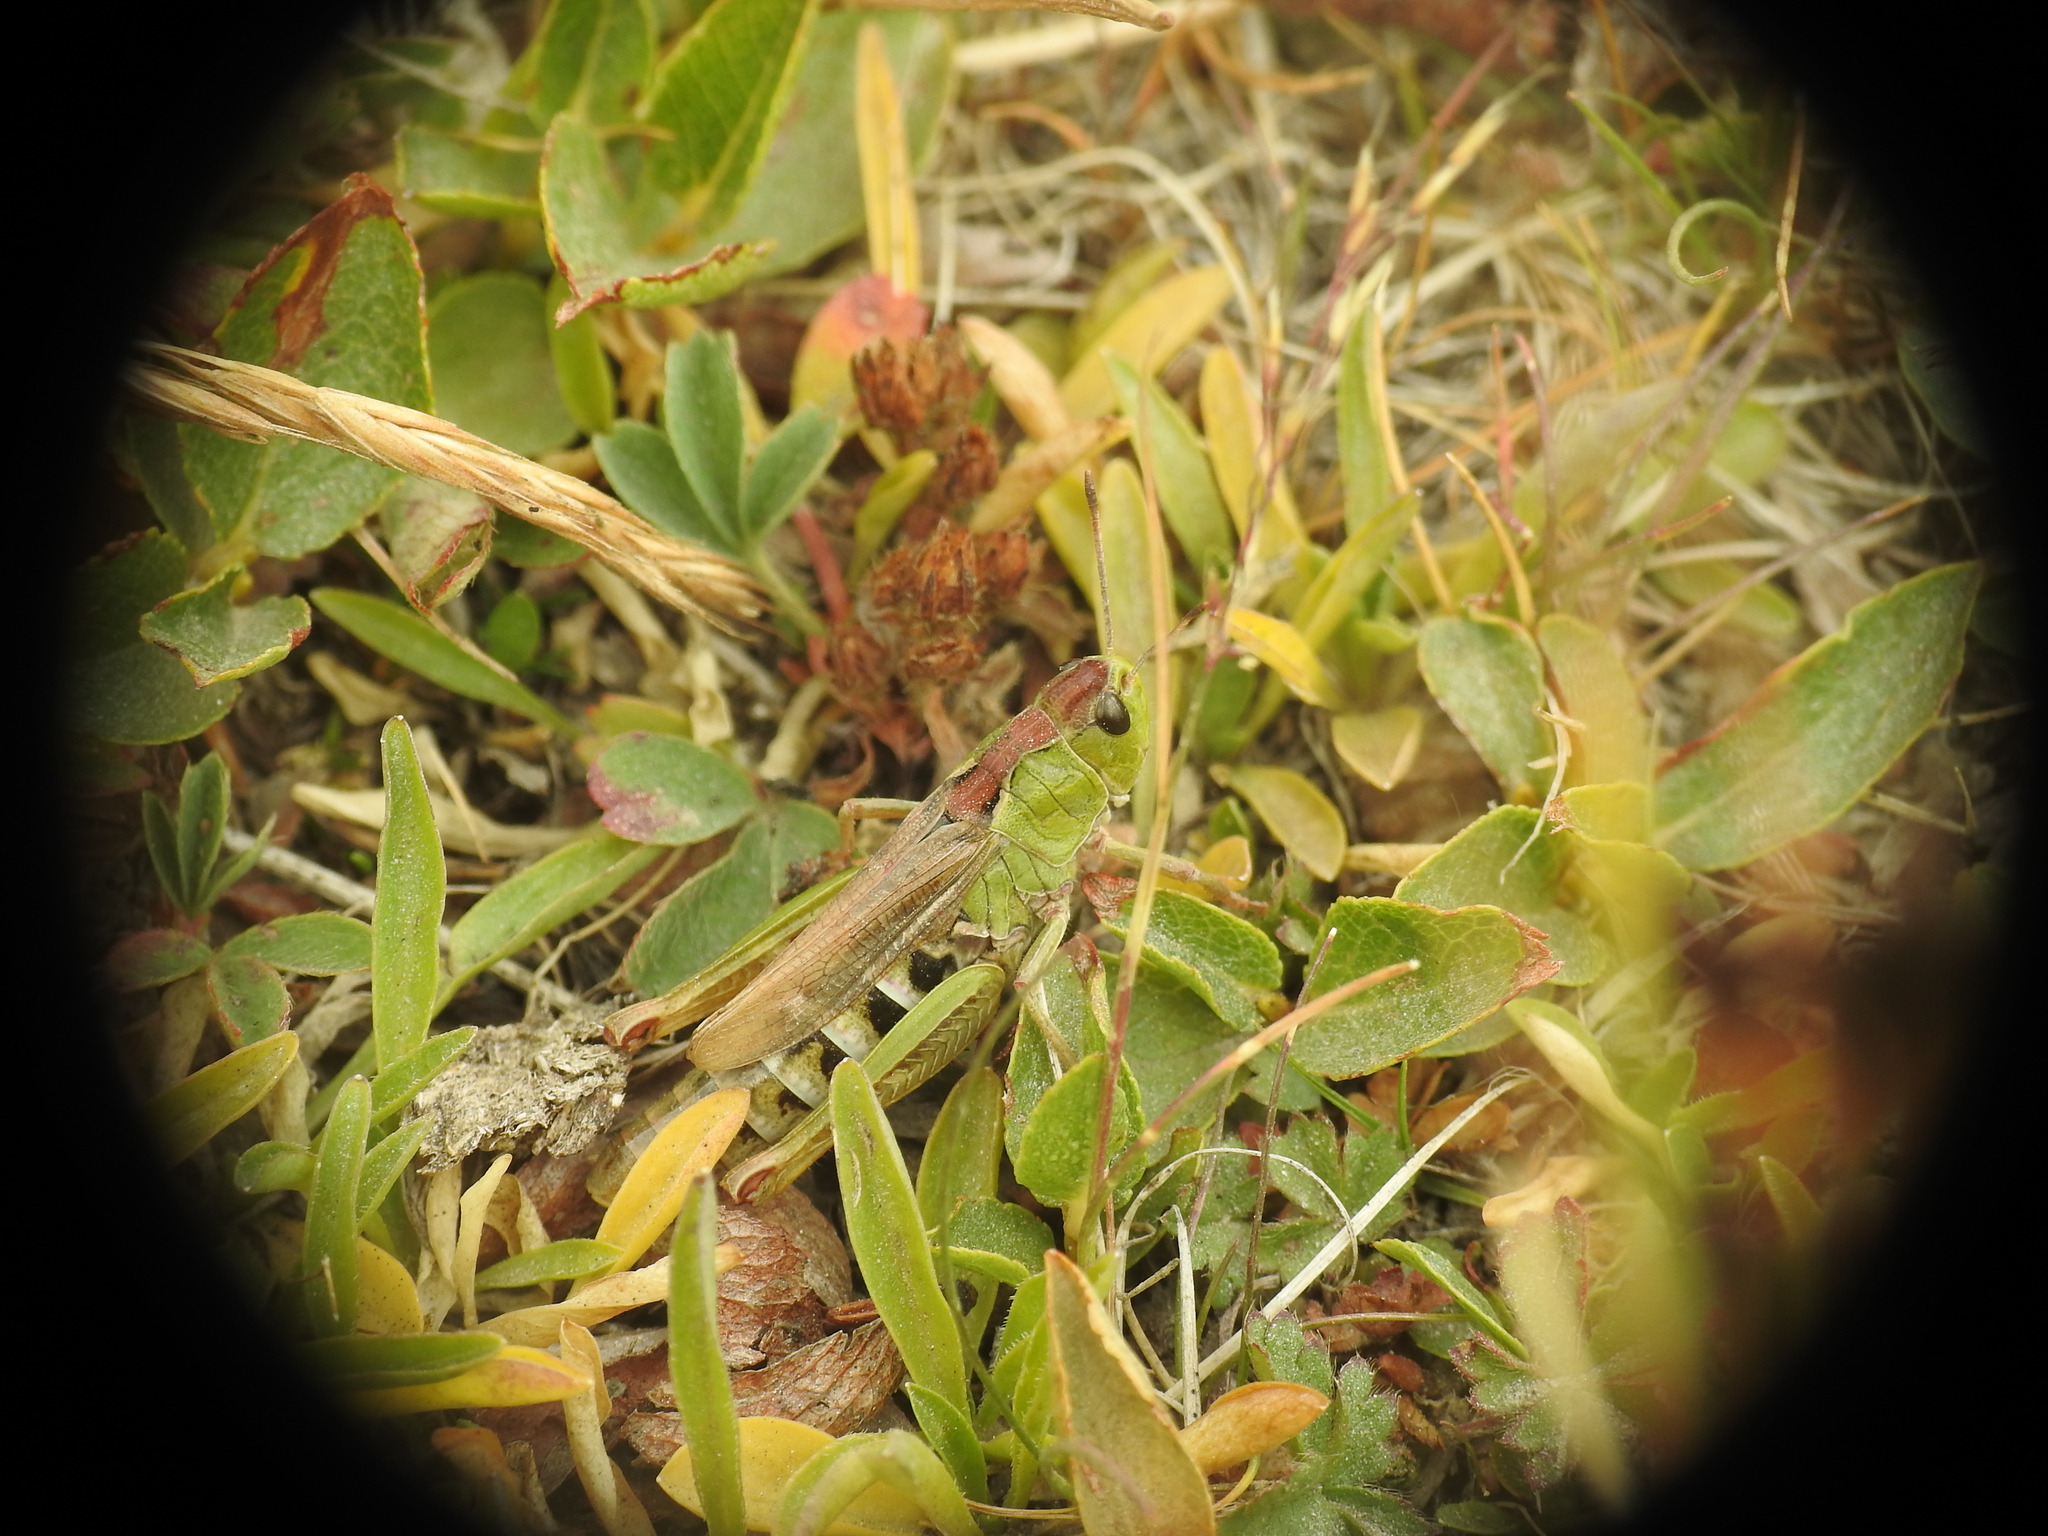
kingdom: Animalia
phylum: Arthropoda
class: Insecta
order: Orthoptera
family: Acrididae
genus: Gomphocerus
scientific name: Gomphocerus sibiricus
